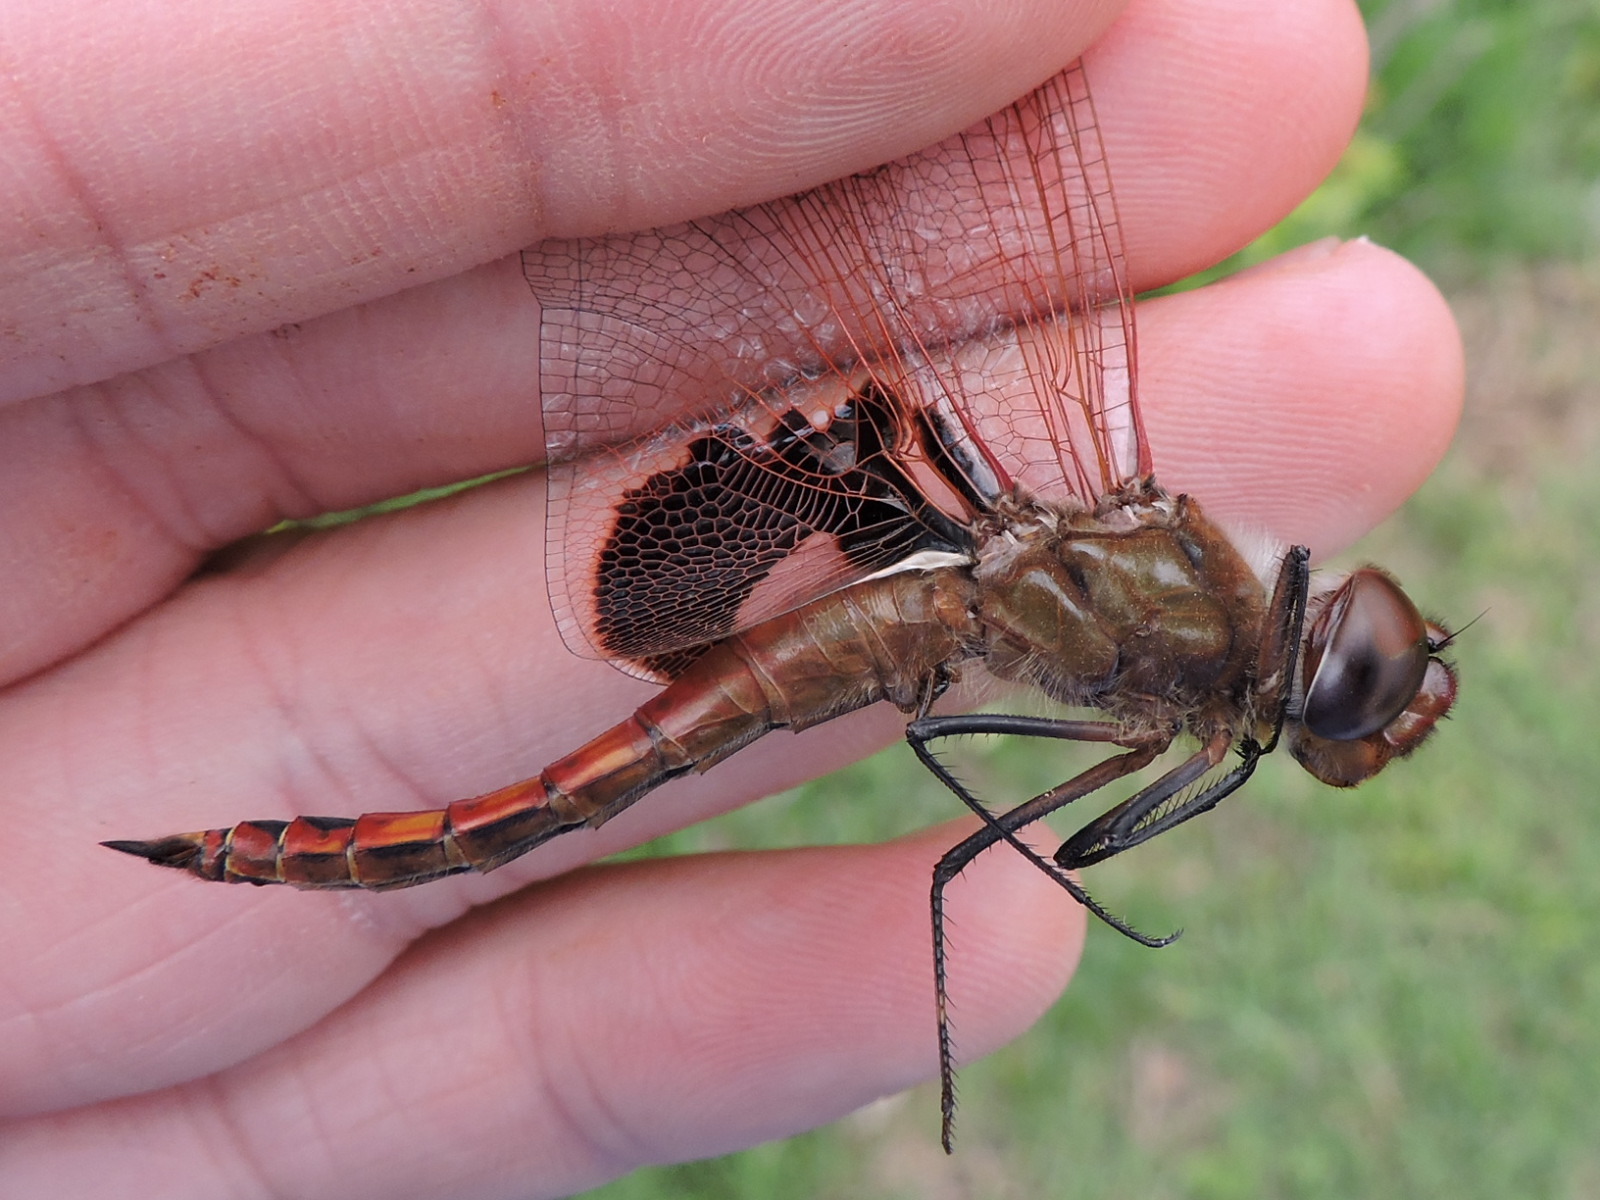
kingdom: Animalia
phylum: Arthropoda
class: Insecta
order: Odonata
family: Libellulidae
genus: Tramea
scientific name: Tramea onusta
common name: Red saddlebags
